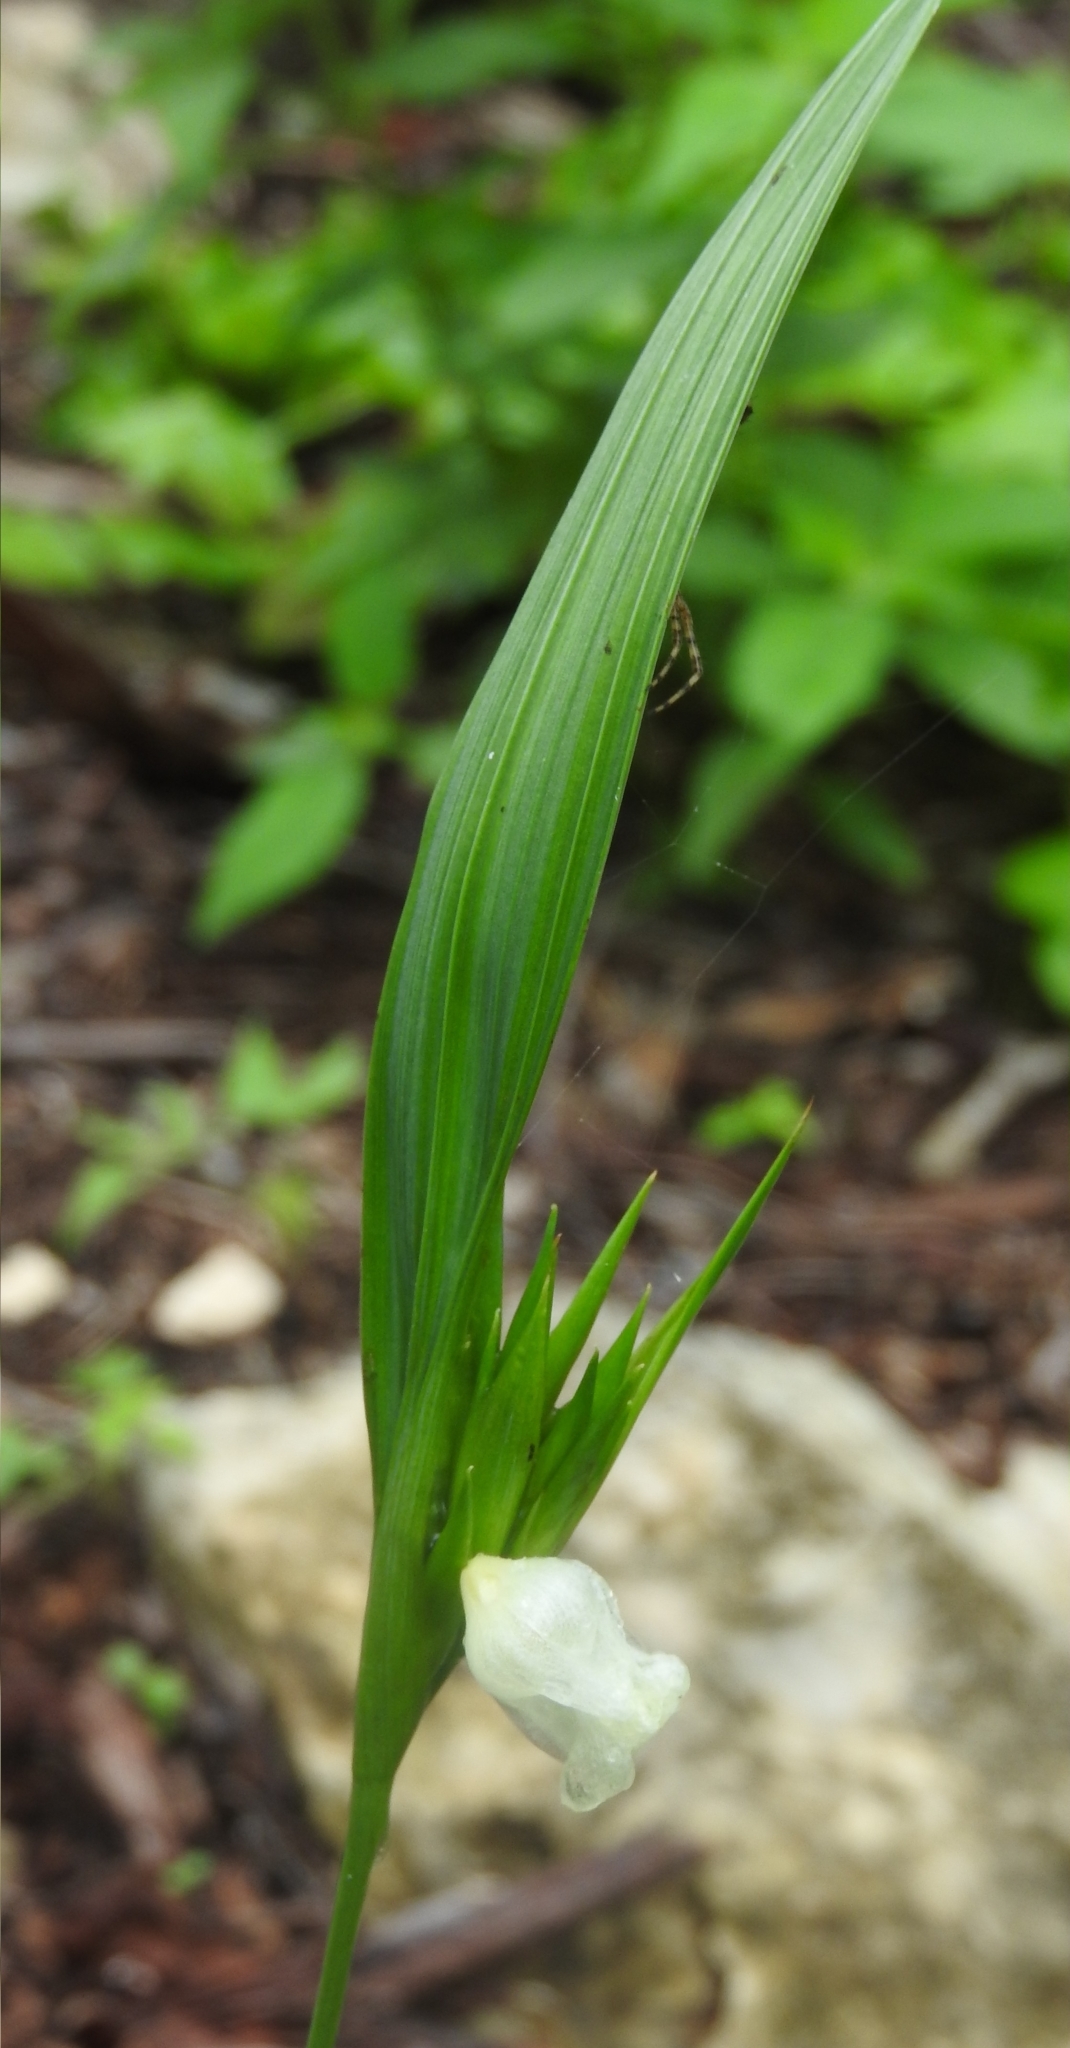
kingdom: Plantae
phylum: Tracheophyta
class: Liliopsida
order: Asparagales
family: Iridaceae
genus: Cipura
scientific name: Cipura campanulata
